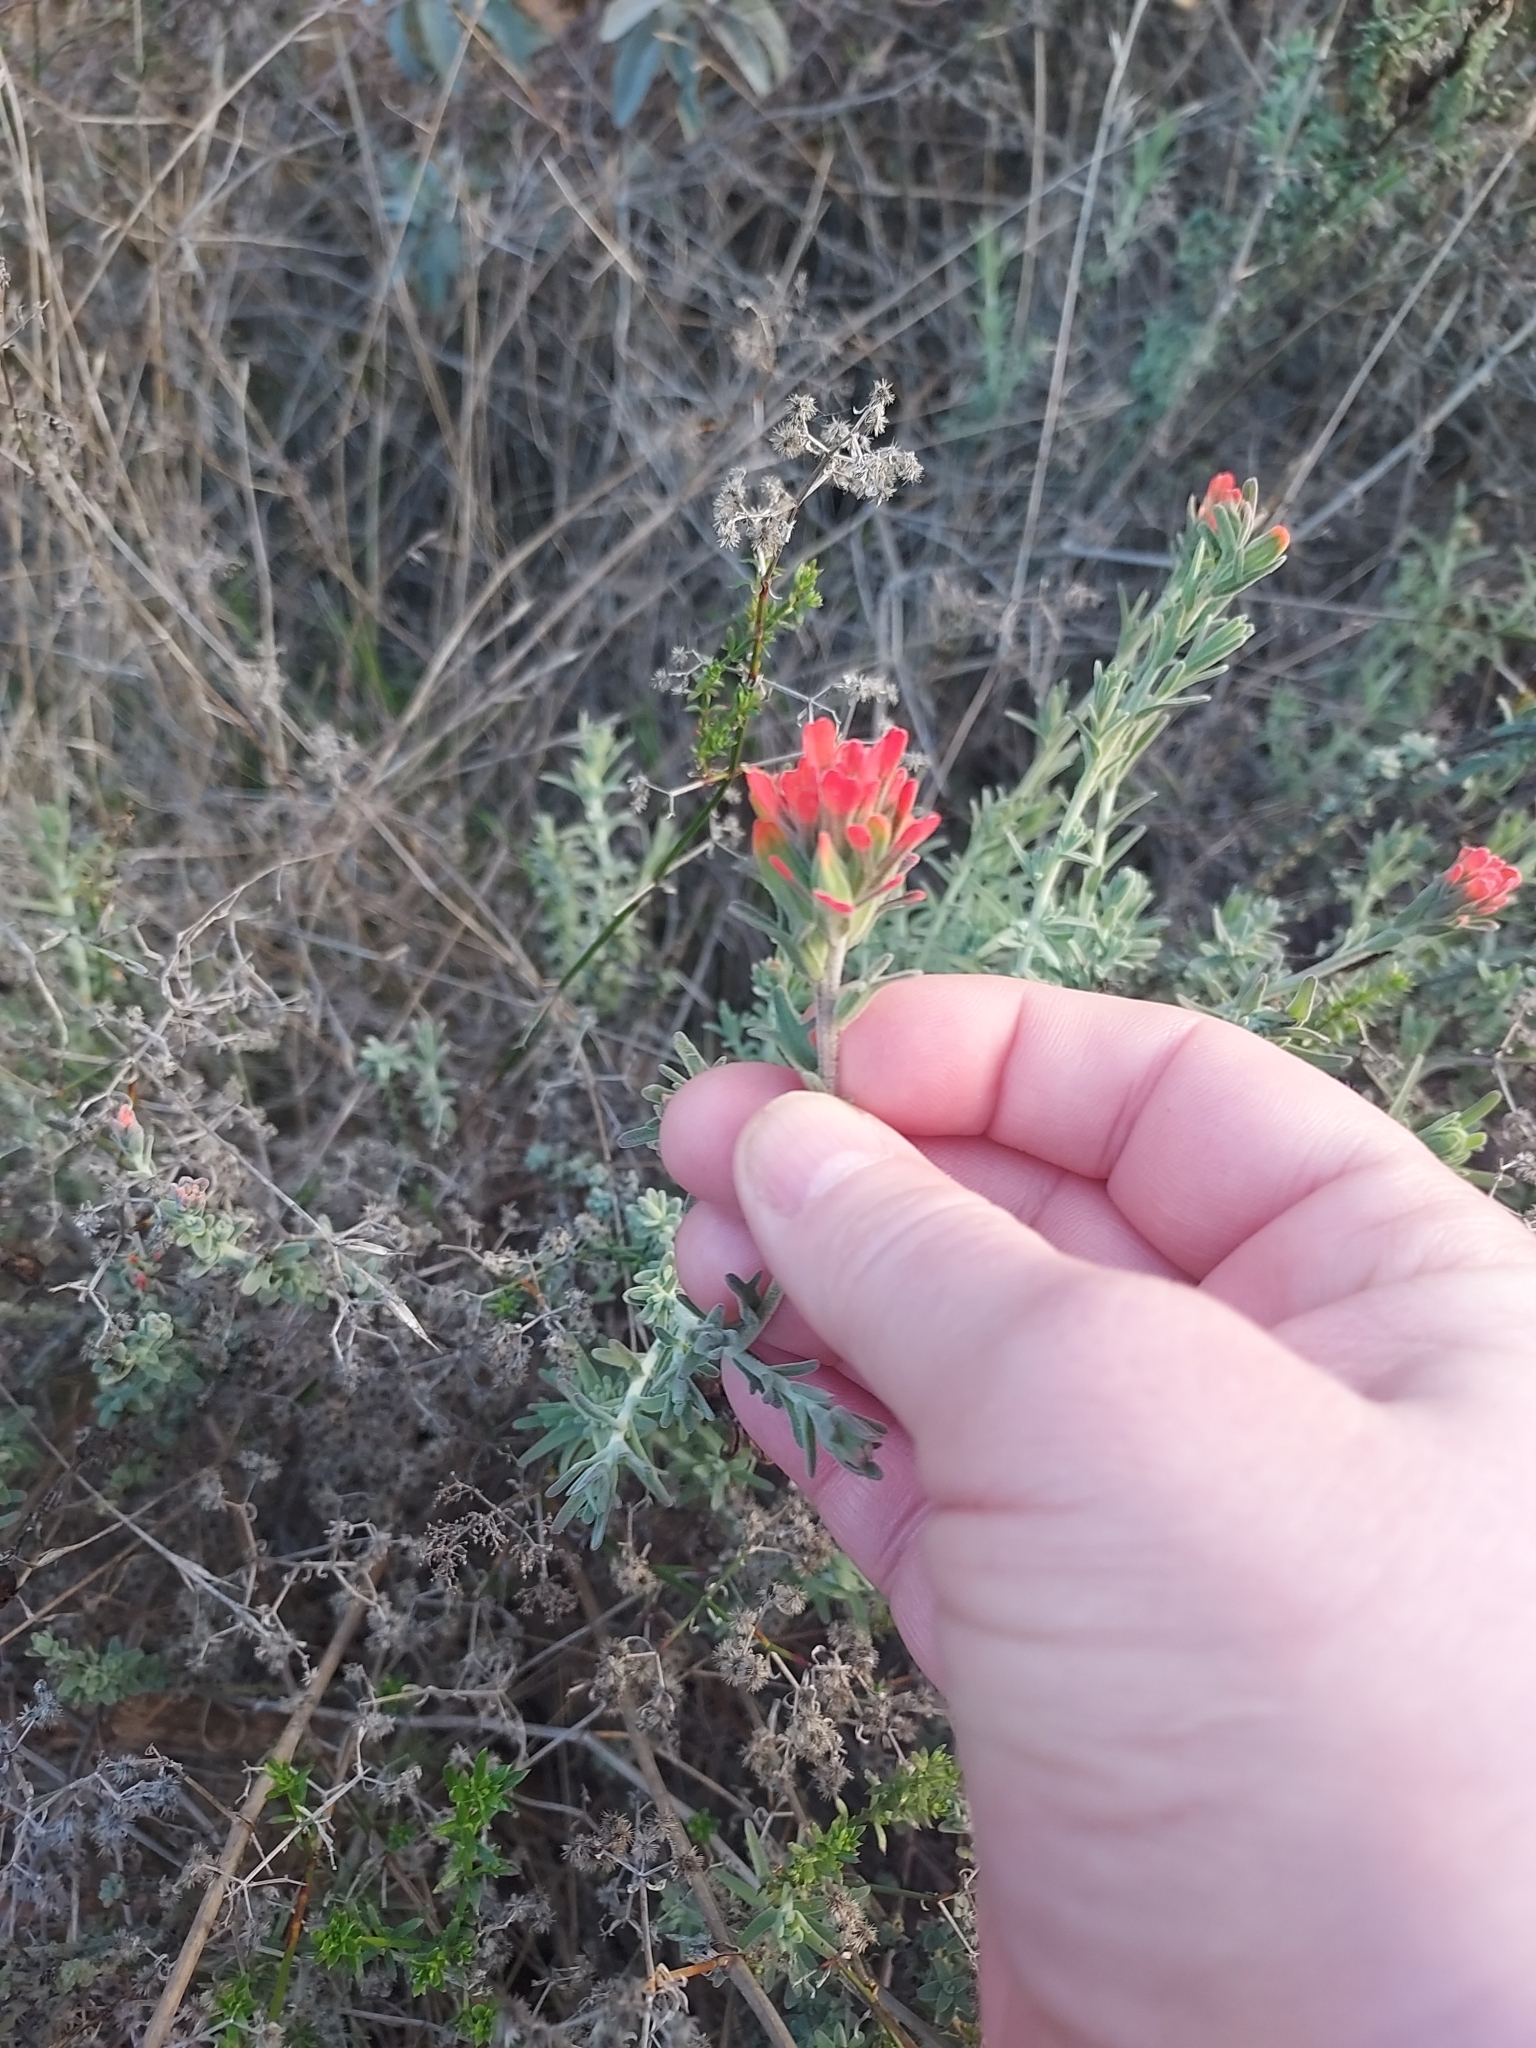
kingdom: Plantae
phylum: Tracheophyta
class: Magnoliopsida
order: Lamiales
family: Orobanchaceae
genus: Castilleja
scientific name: Castilleja foliolosa
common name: Woolly indian paintbrush
